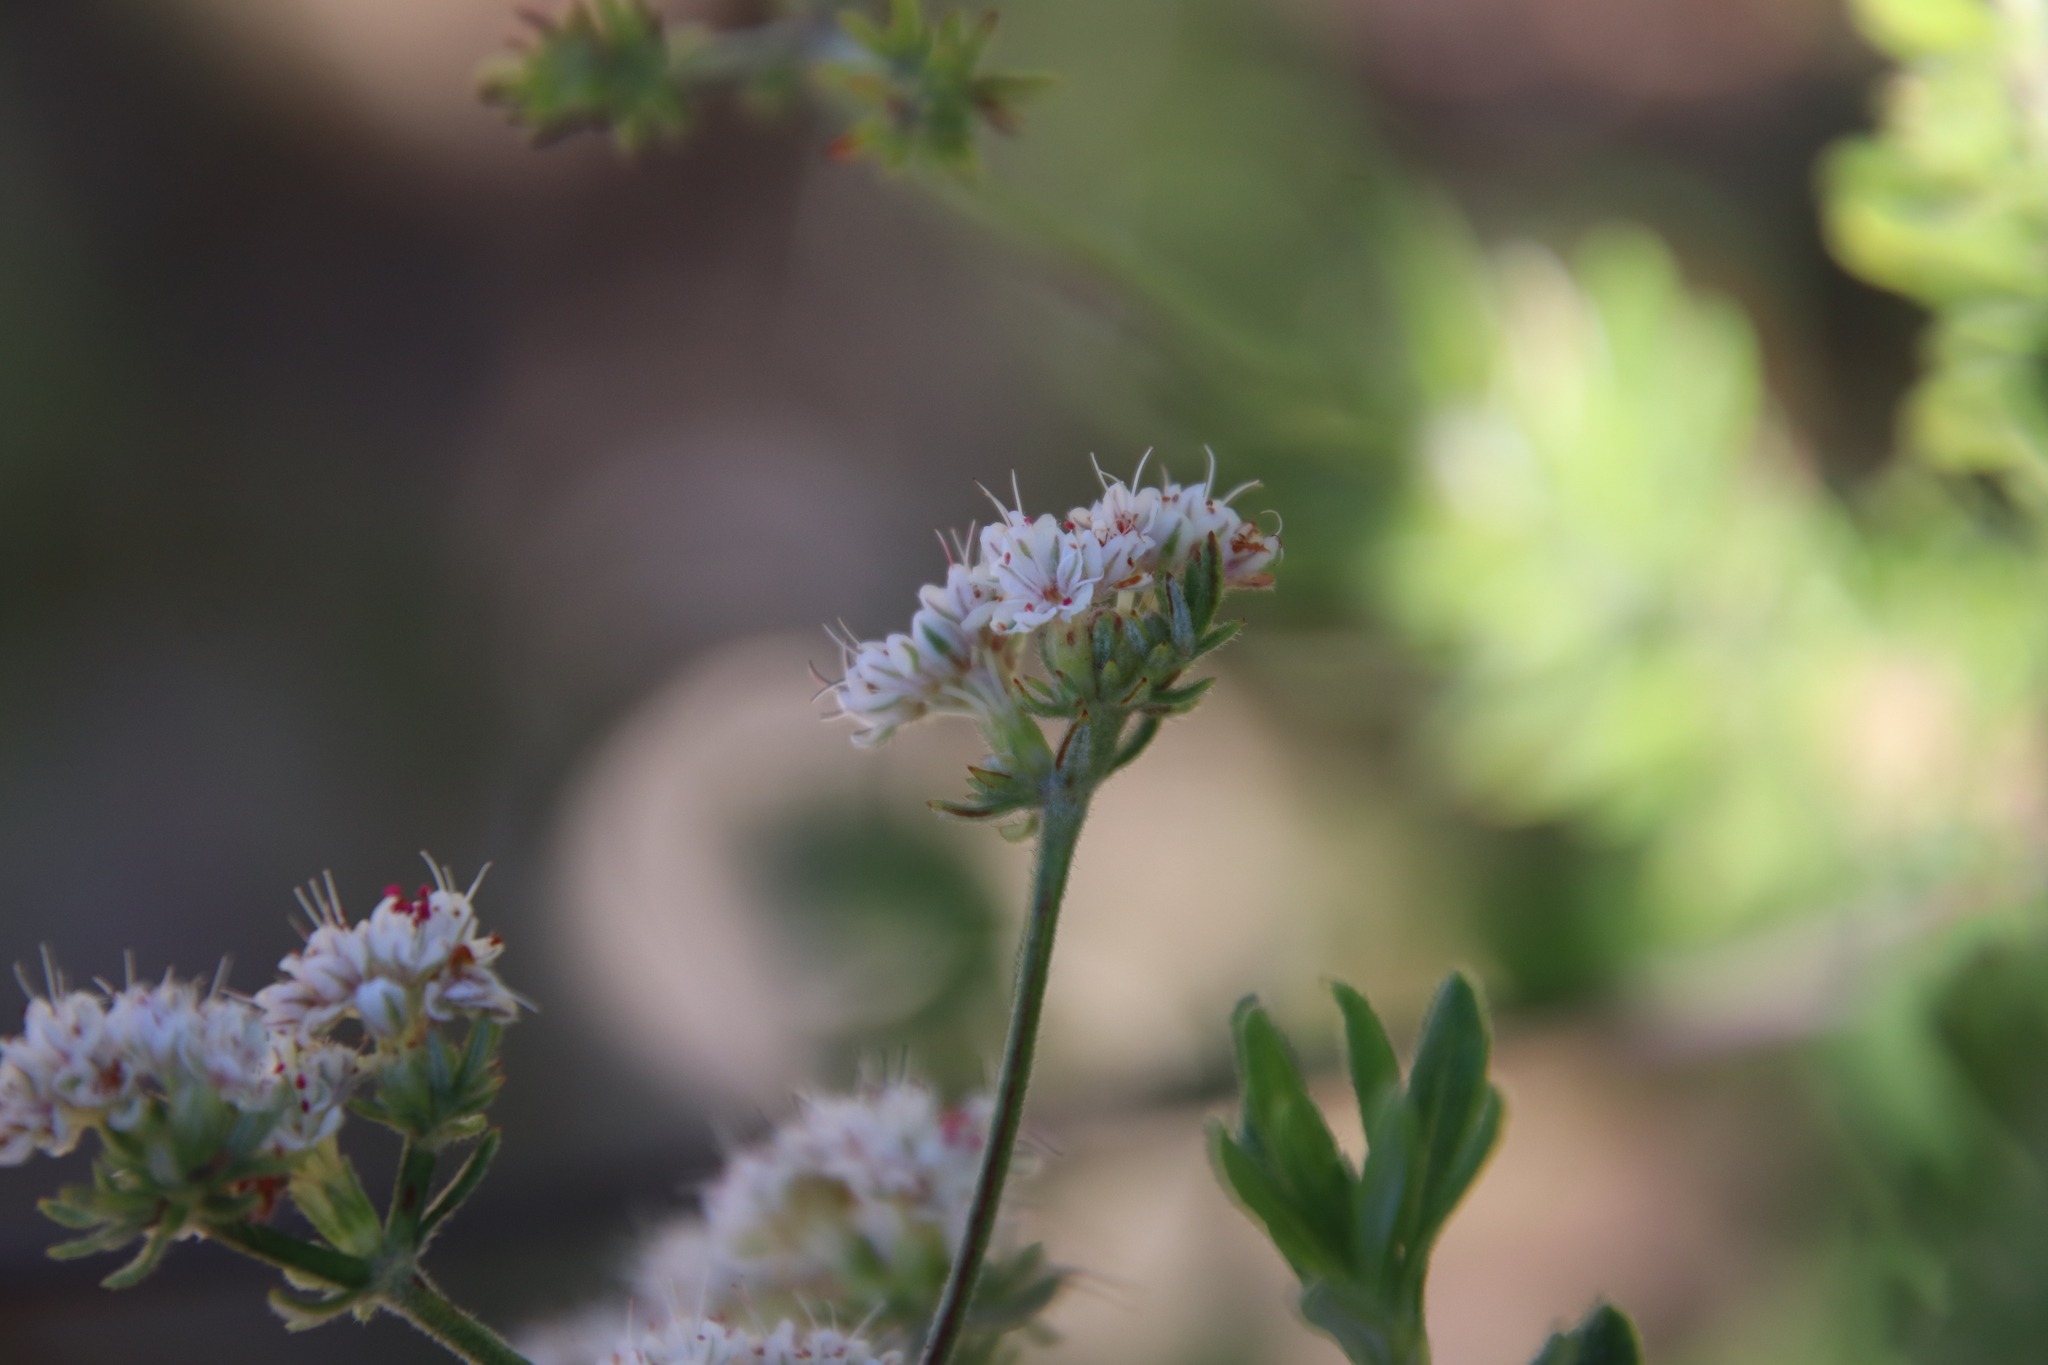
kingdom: Plantae
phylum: Tracheophyta
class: Magnoliopsida
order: Caryophyllales
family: Polygonaceae
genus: Eriogonum
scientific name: Eriogonum fasciculatum
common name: California wild buckwheat
